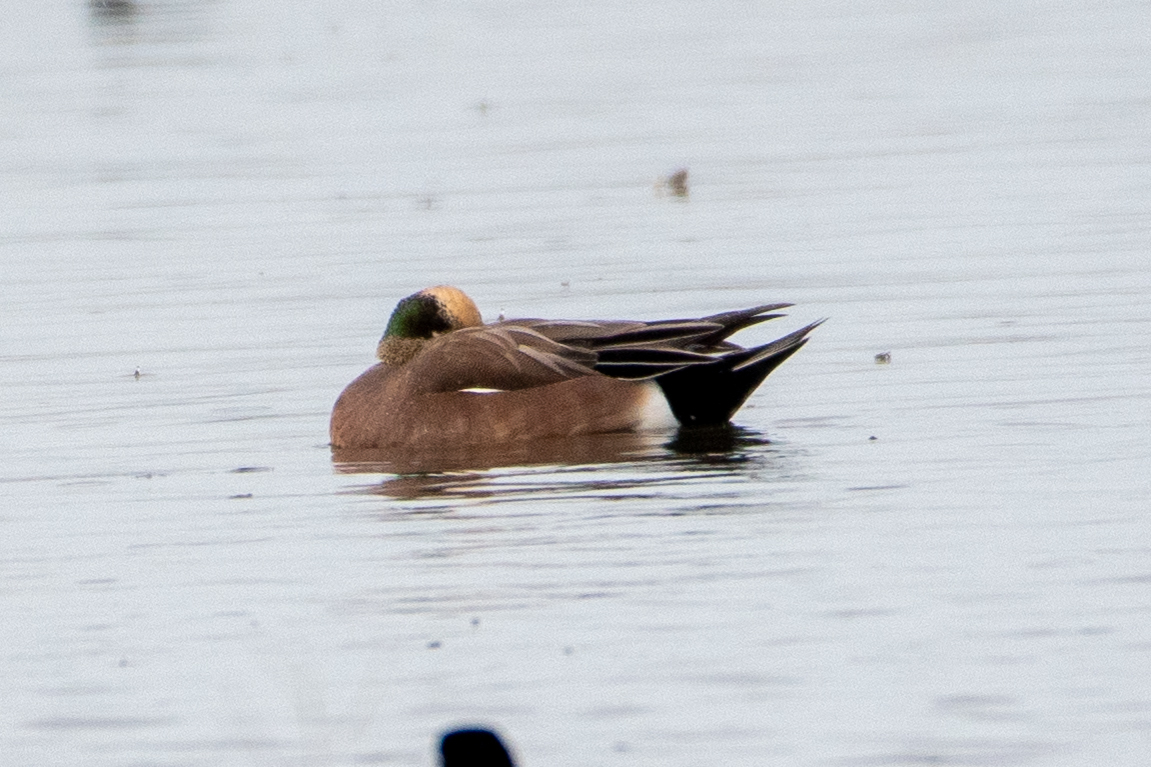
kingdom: Animalia
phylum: Chordata
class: Aves
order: Anseriformes
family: Anatidae
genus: Mareca
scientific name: Mareca americana
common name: American wigeon
